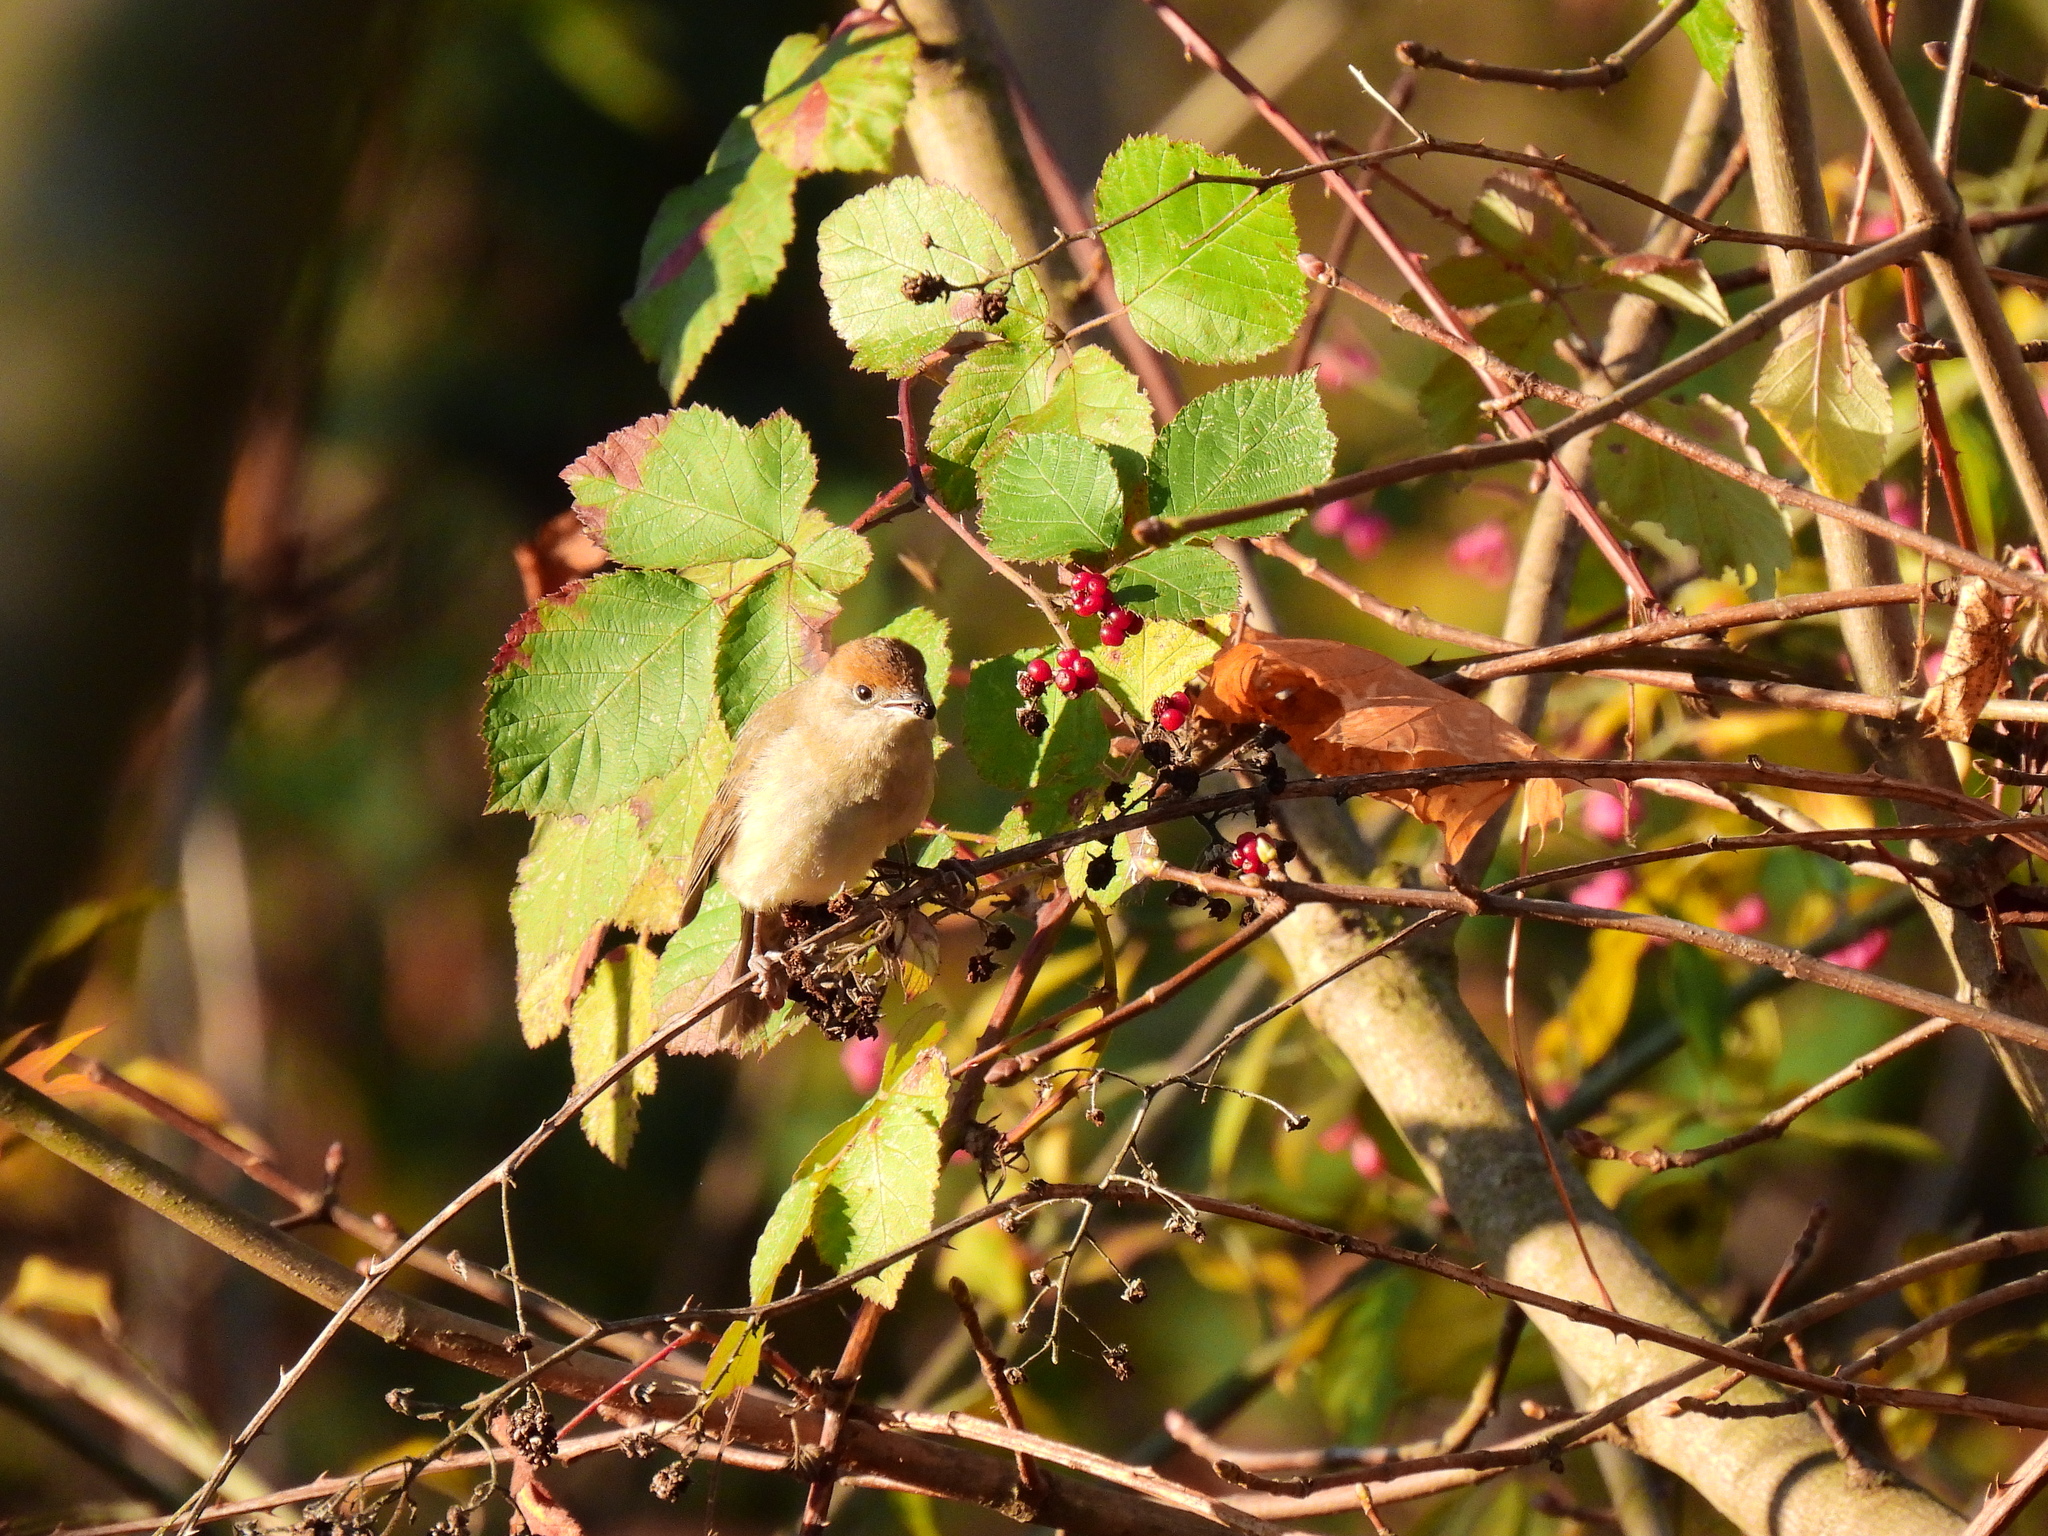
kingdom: Animalia
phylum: Chordata
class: Aves
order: Passeriformes
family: Sylviidae
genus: Sylvia
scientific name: Sylvia atricapilla
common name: Eurasian blackcap
